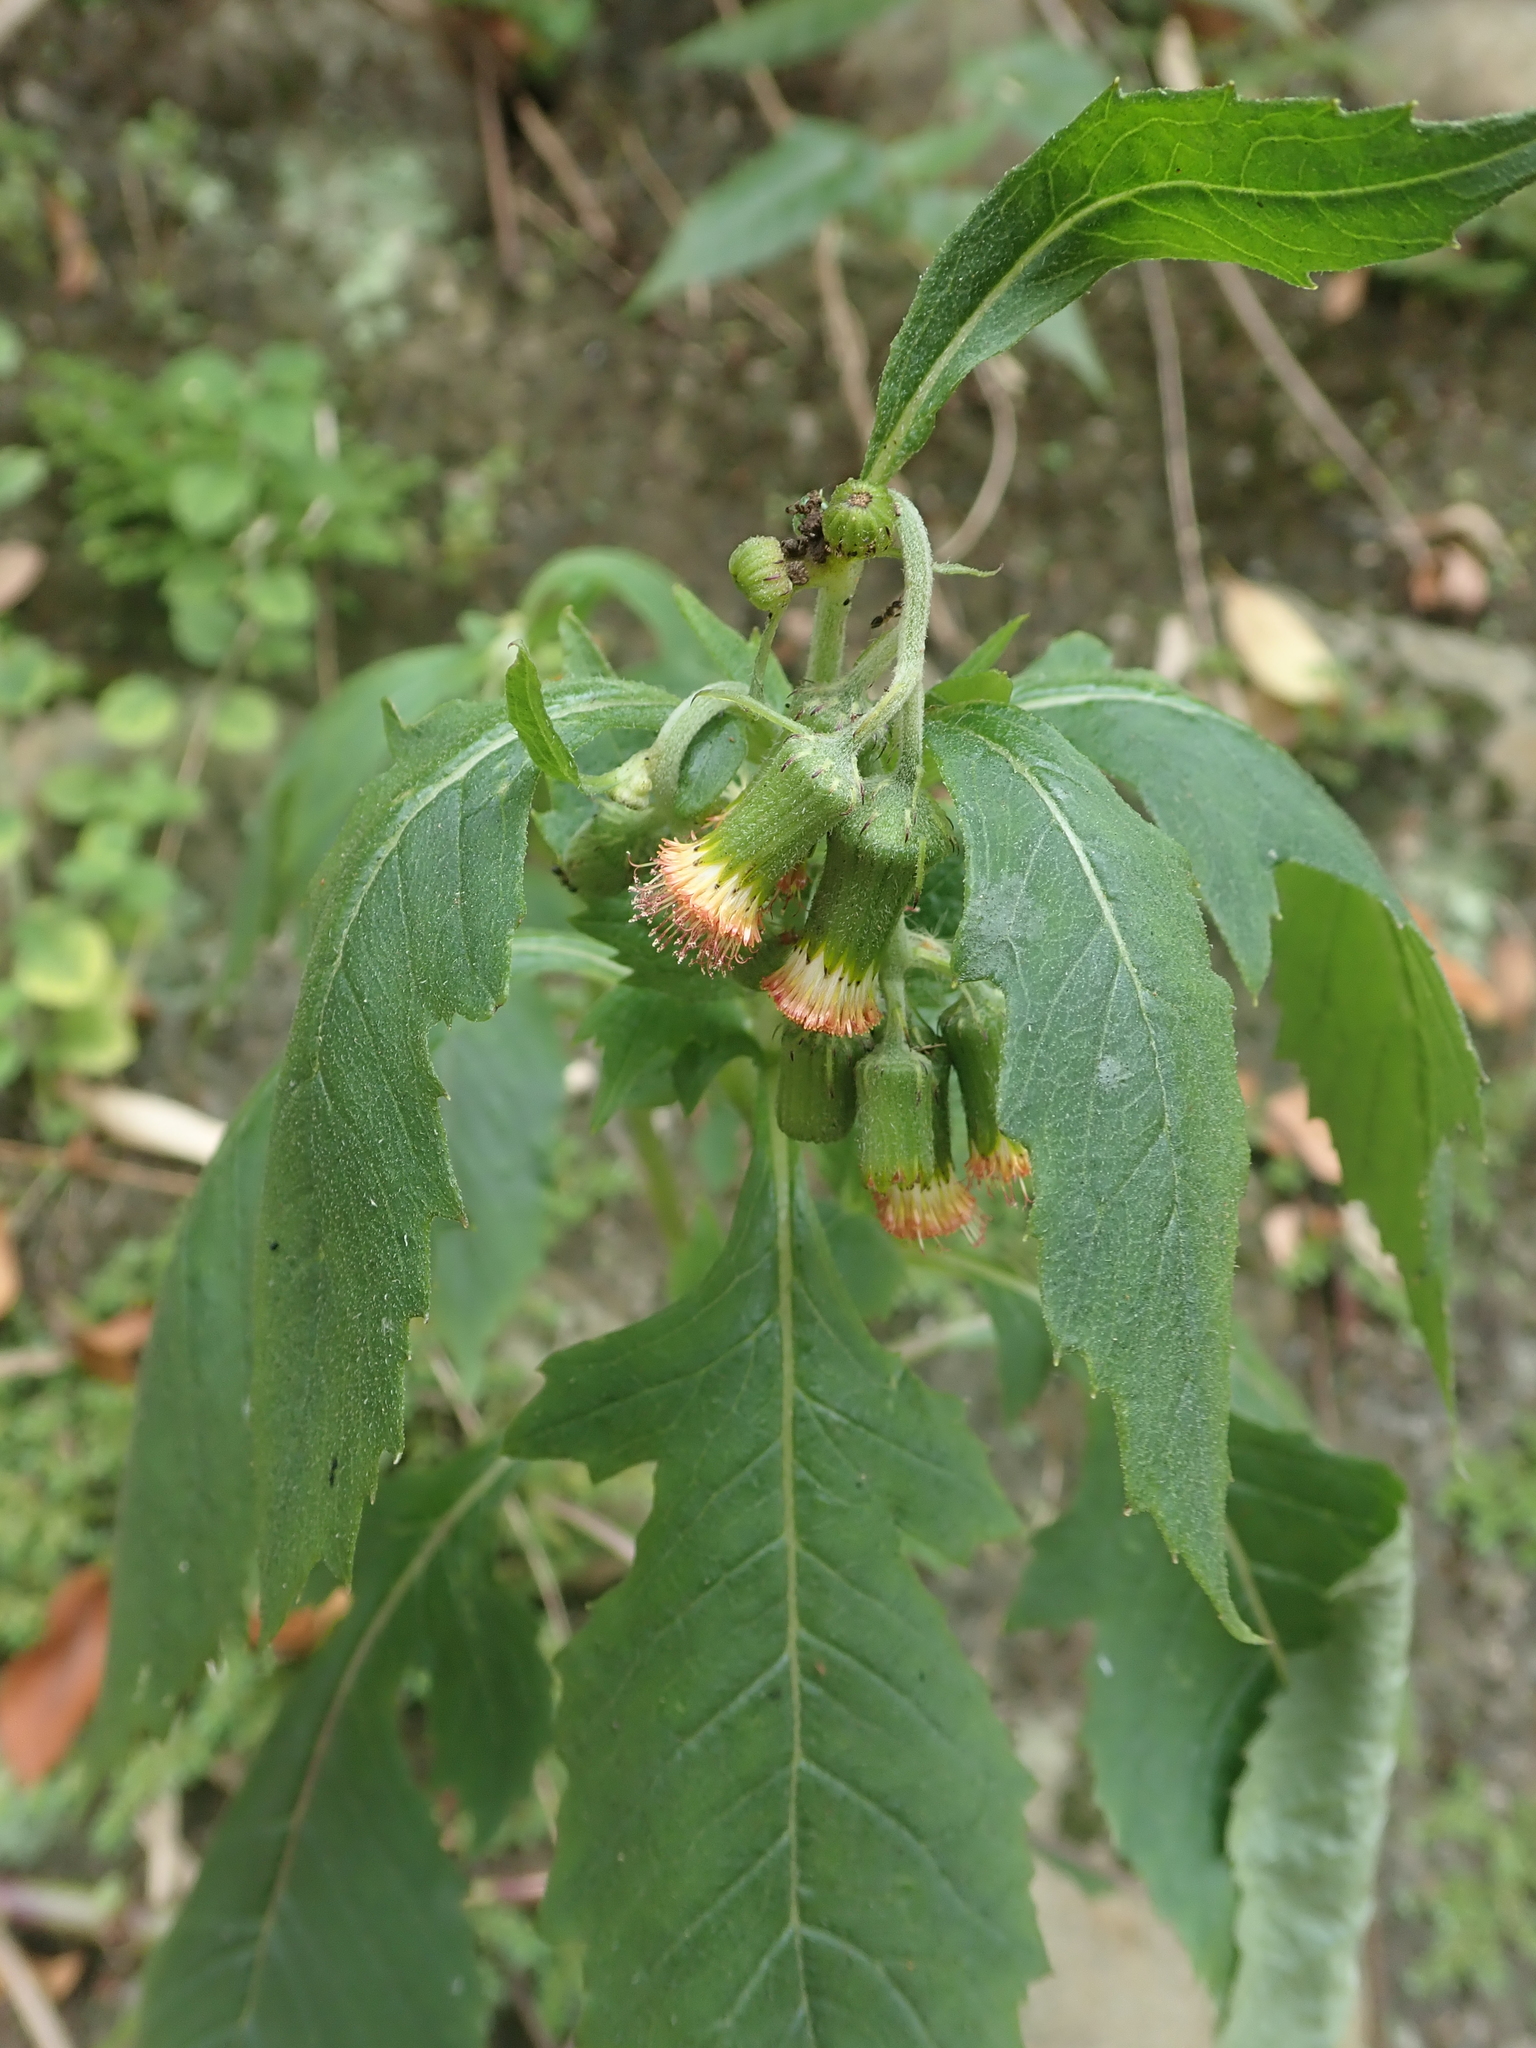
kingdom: Plantae
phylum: Tracheophyta
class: Magnoliopsida
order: Asterales
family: Asteraceae
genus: Crassocephalum
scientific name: Crassocephalum crepidioides
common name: Redflower ragleaf
